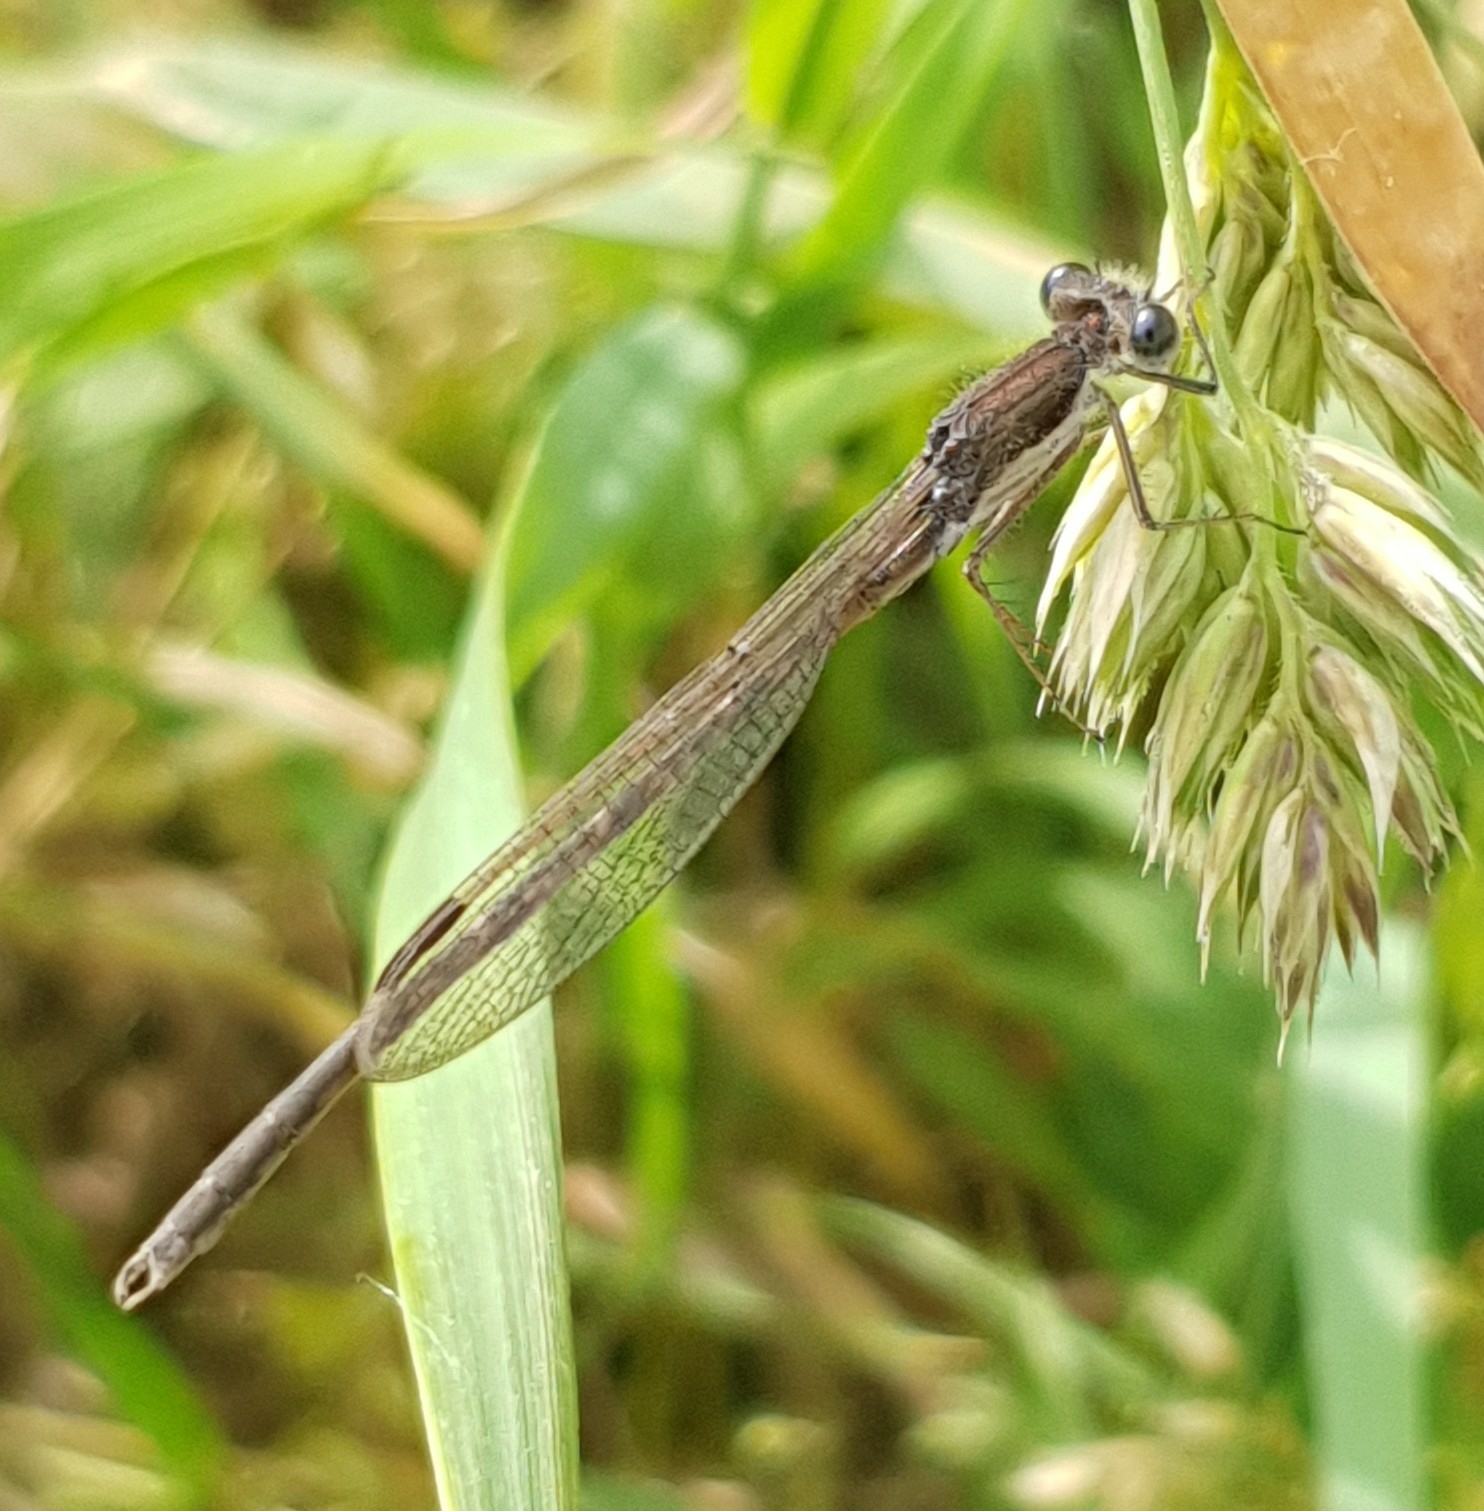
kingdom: Animalia
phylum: Arthropoda
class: Insecta
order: Odonata
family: Lestidae
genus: Sympecma
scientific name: Sympecma fusca
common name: Common winter damsel
